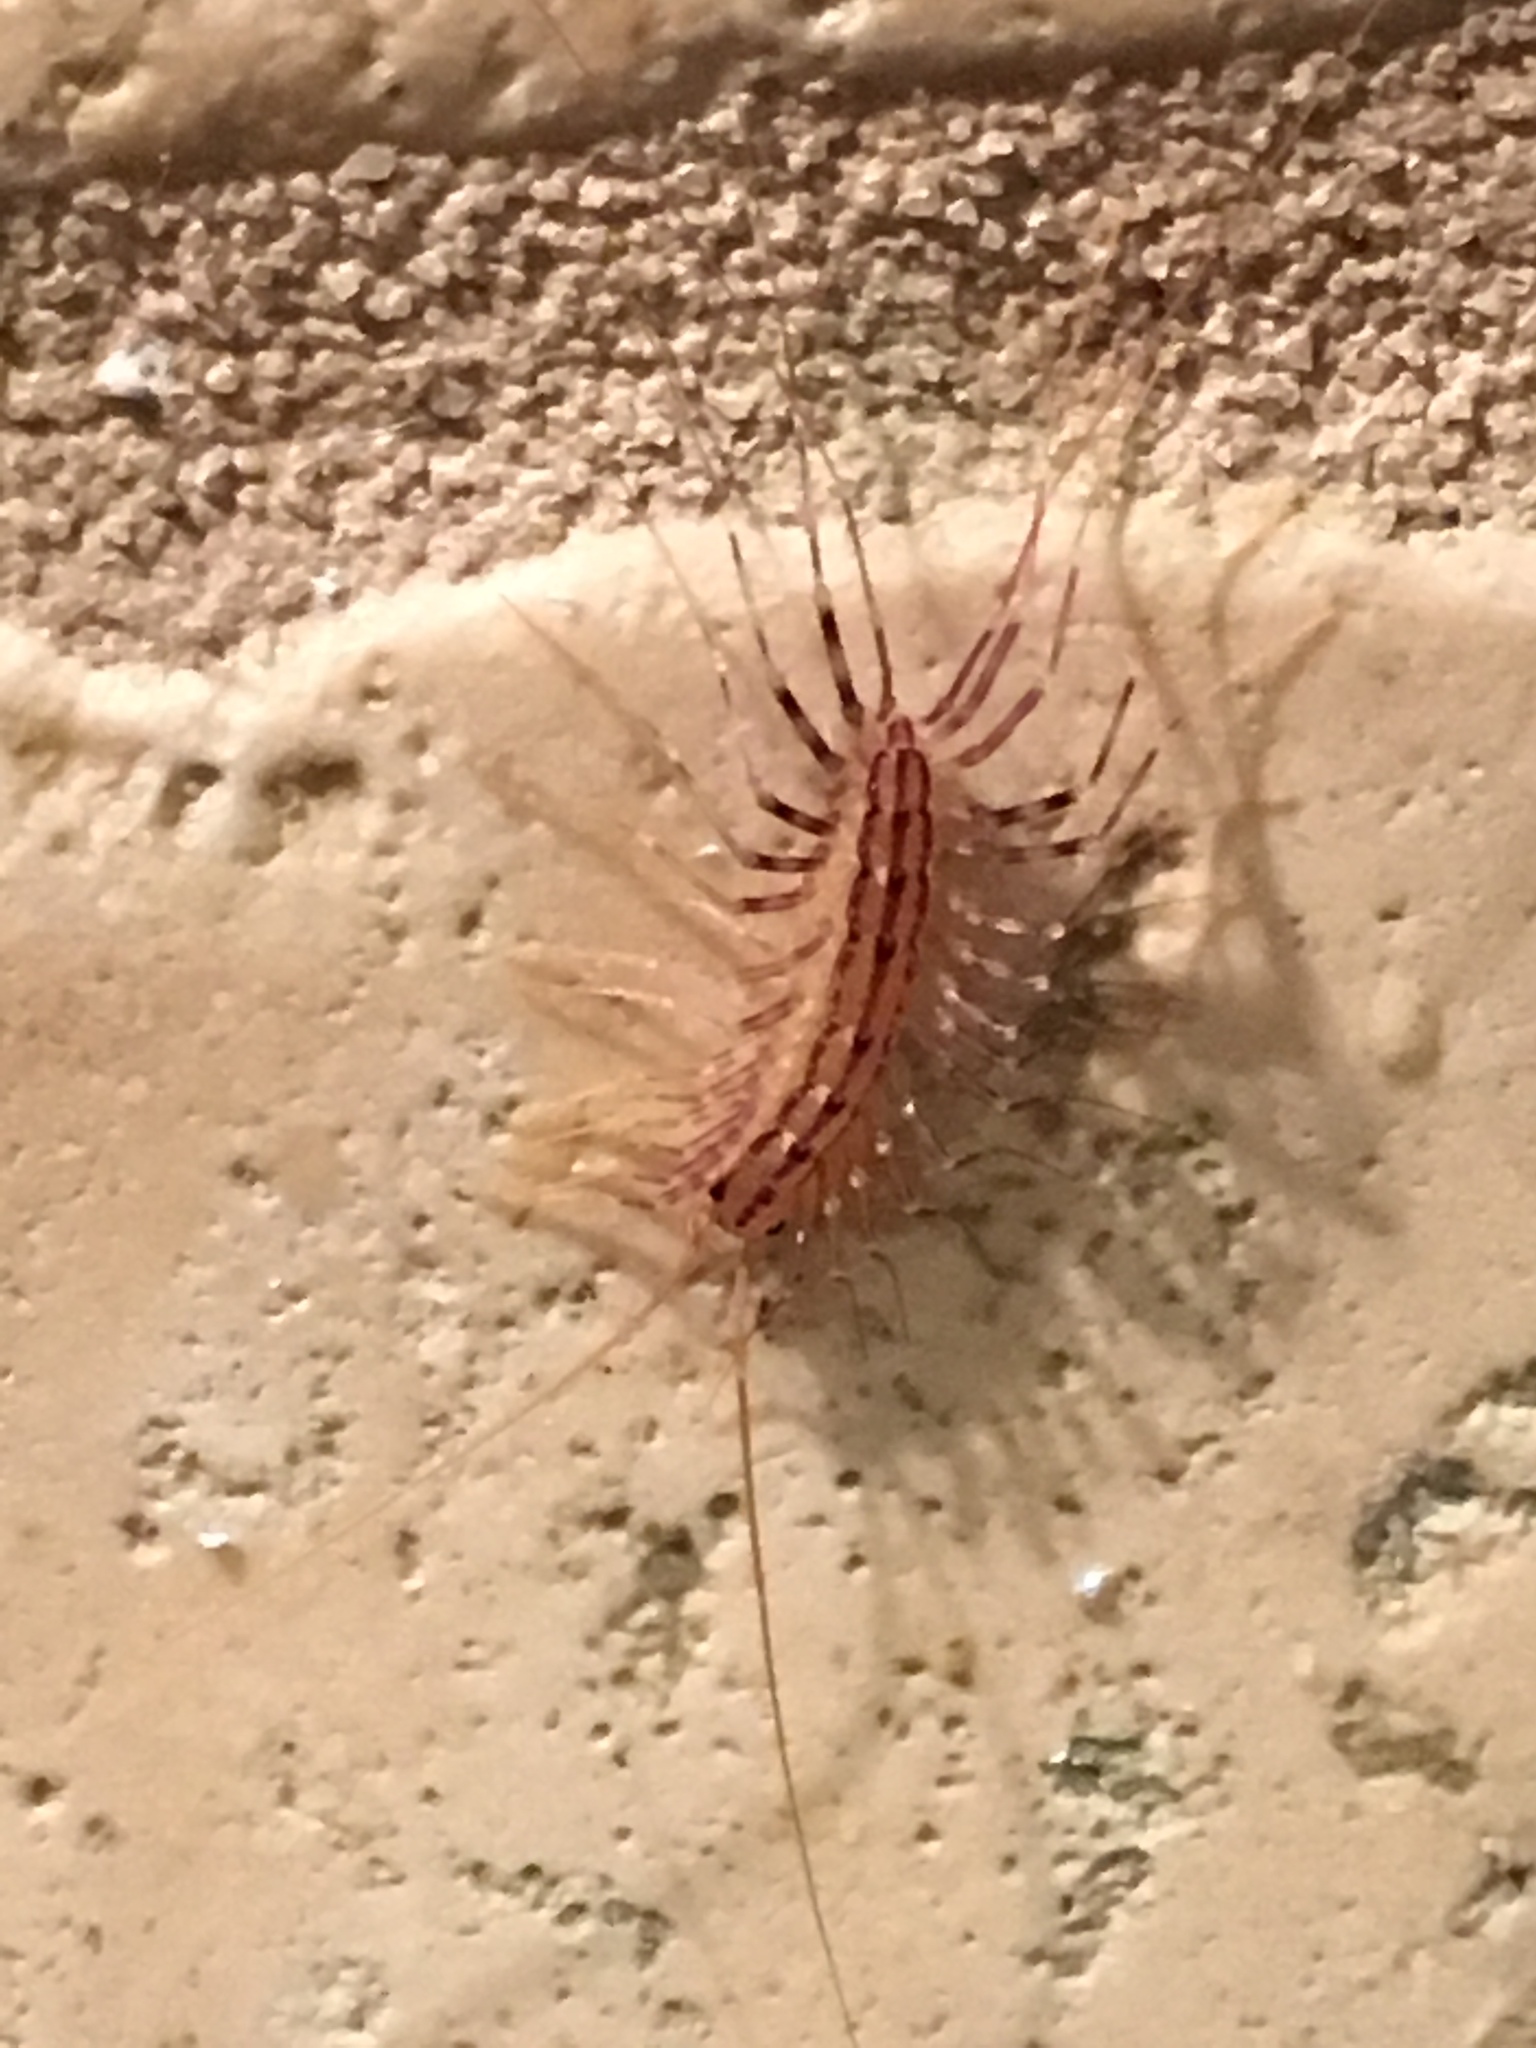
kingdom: Animalia
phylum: Arthropoda
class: Chilopoda
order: Scutigeromorpha
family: Scutigeridae
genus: Scutigera
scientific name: Scutigera coleoptrata
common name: House centipede
